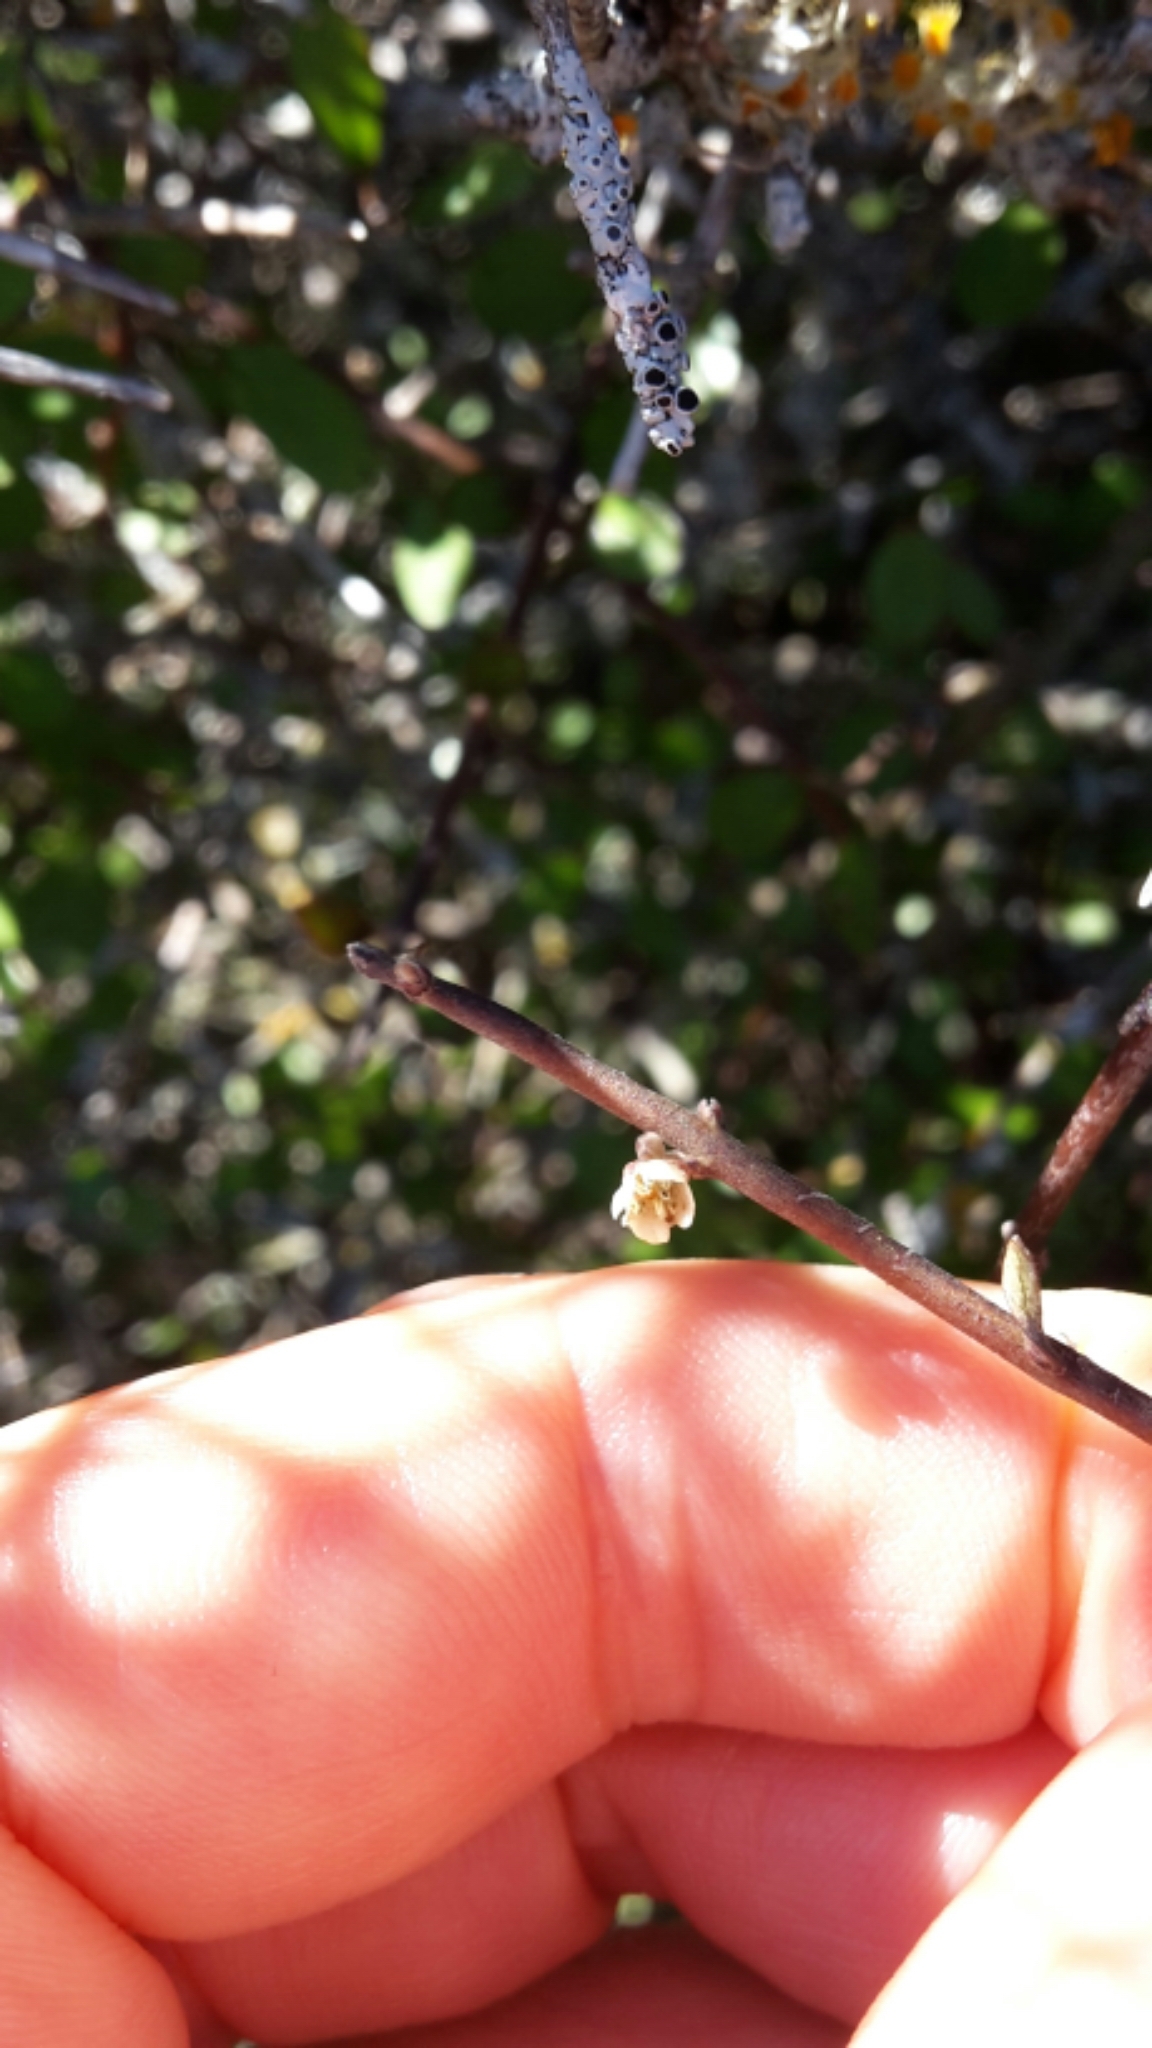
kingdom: Plantae
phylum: Tracheophyta
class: Magnoliopsida
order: Oxalidales
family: Elaeocarpaceae
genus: Aristotelia
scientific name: Aristotelia fruticosa
